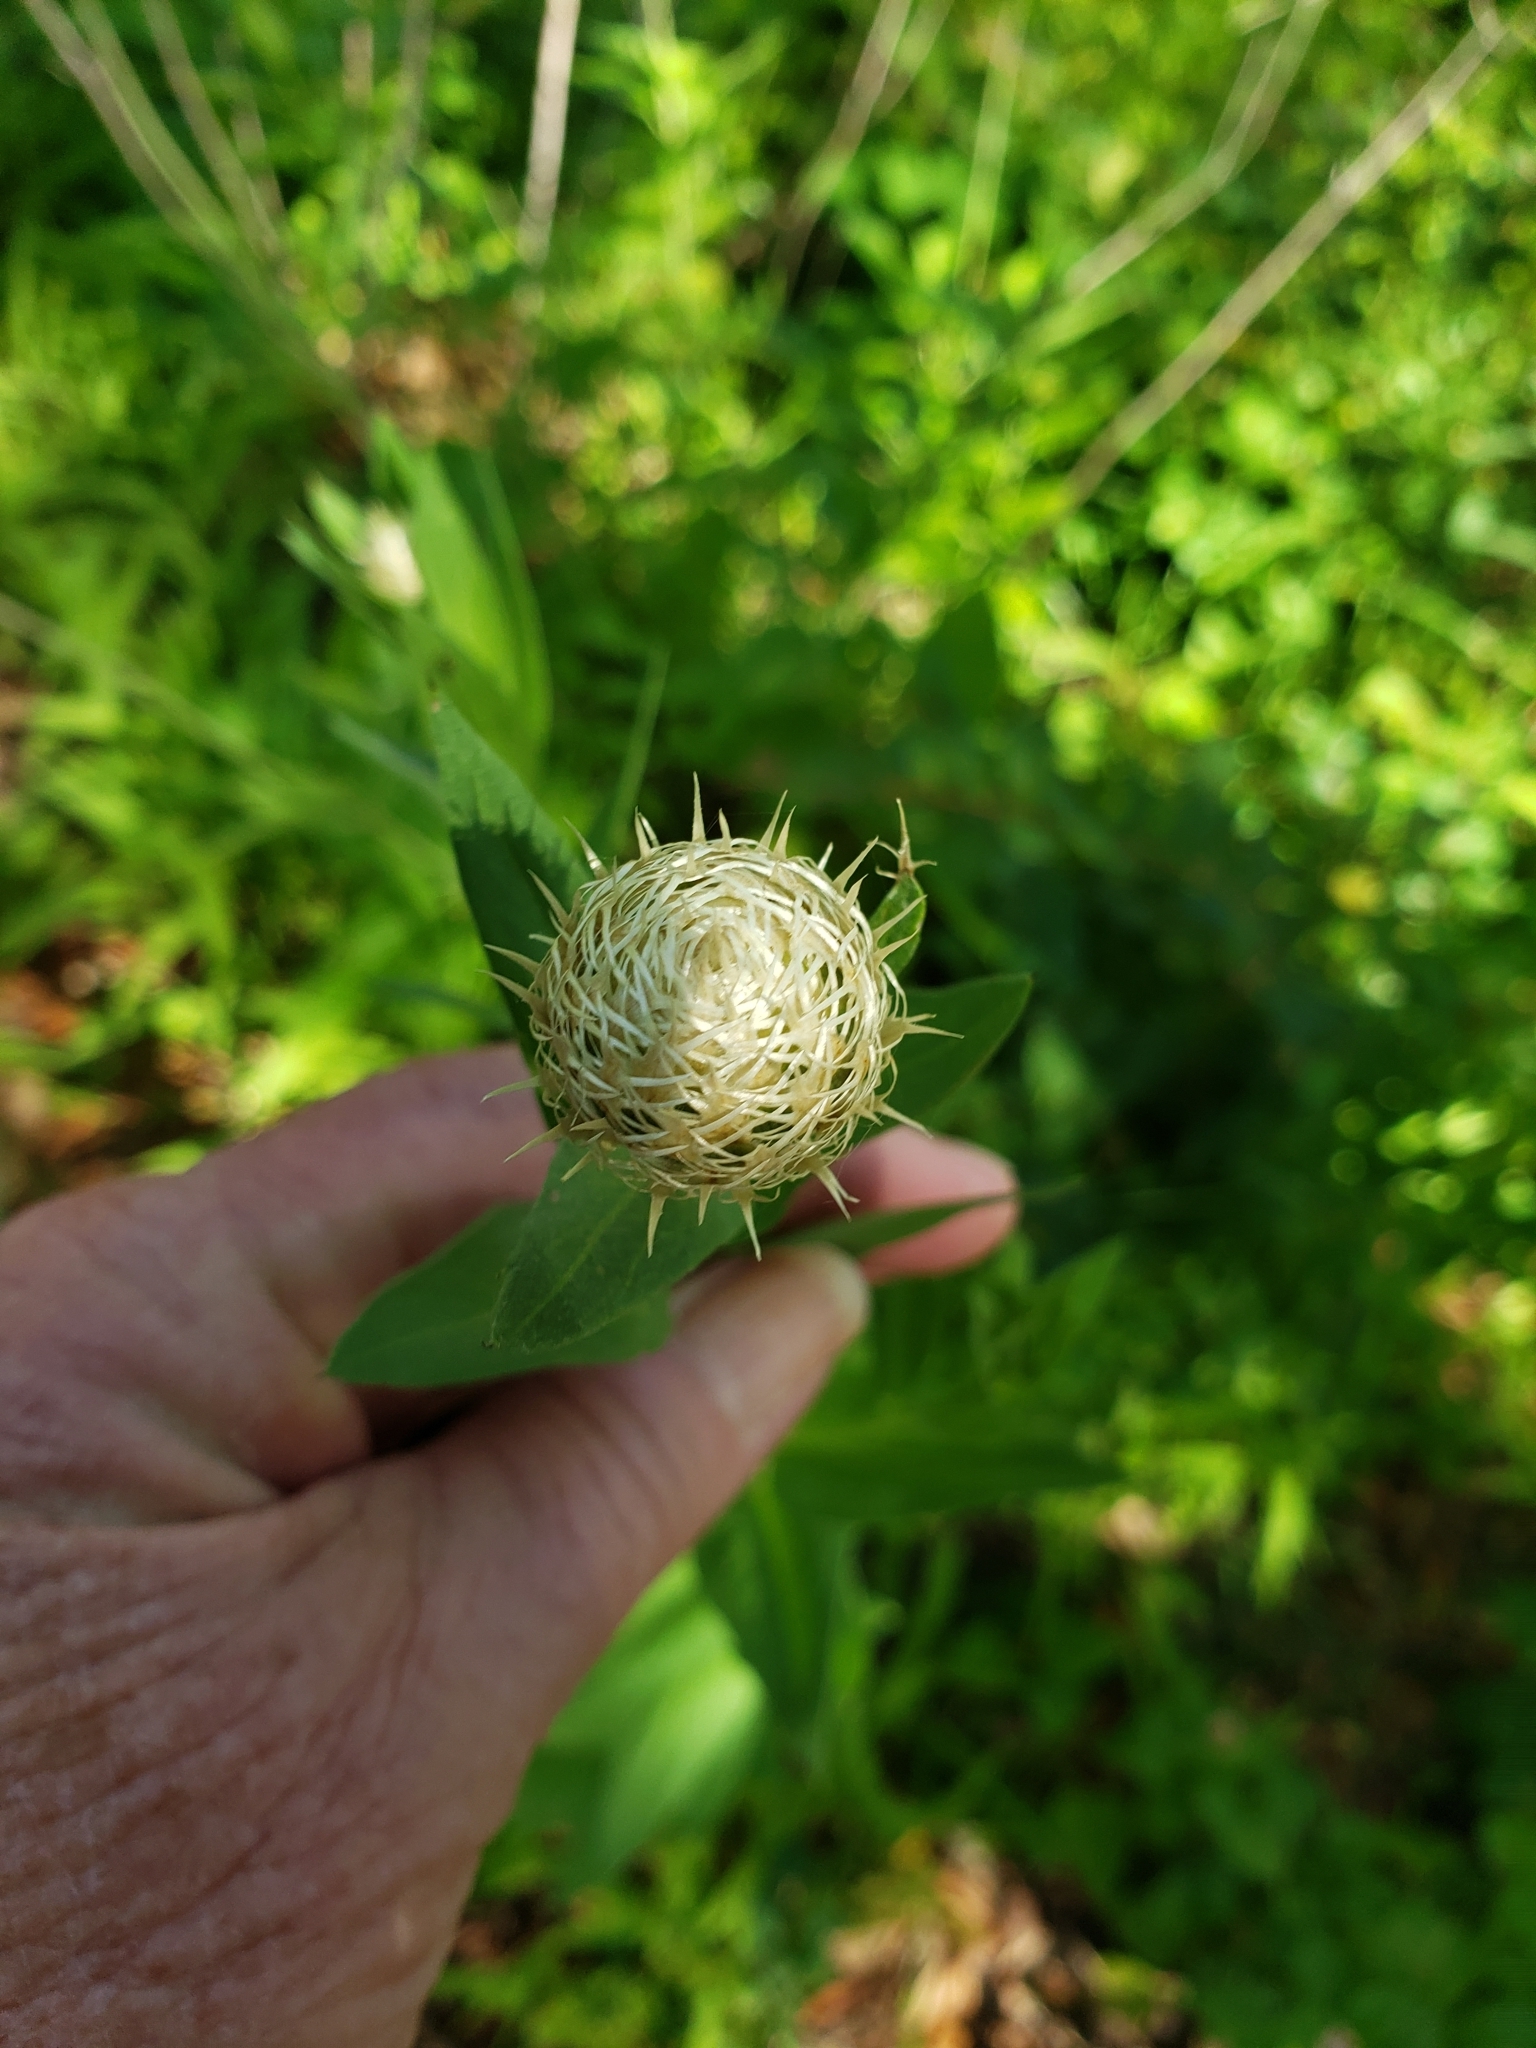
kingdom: Plantae
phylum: Tracheophyta
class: Magnoliopsida
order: Asterales
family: Asteraceae
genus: Plectocephalus
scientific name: Plectocephalus americanus
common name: American basket-flower
